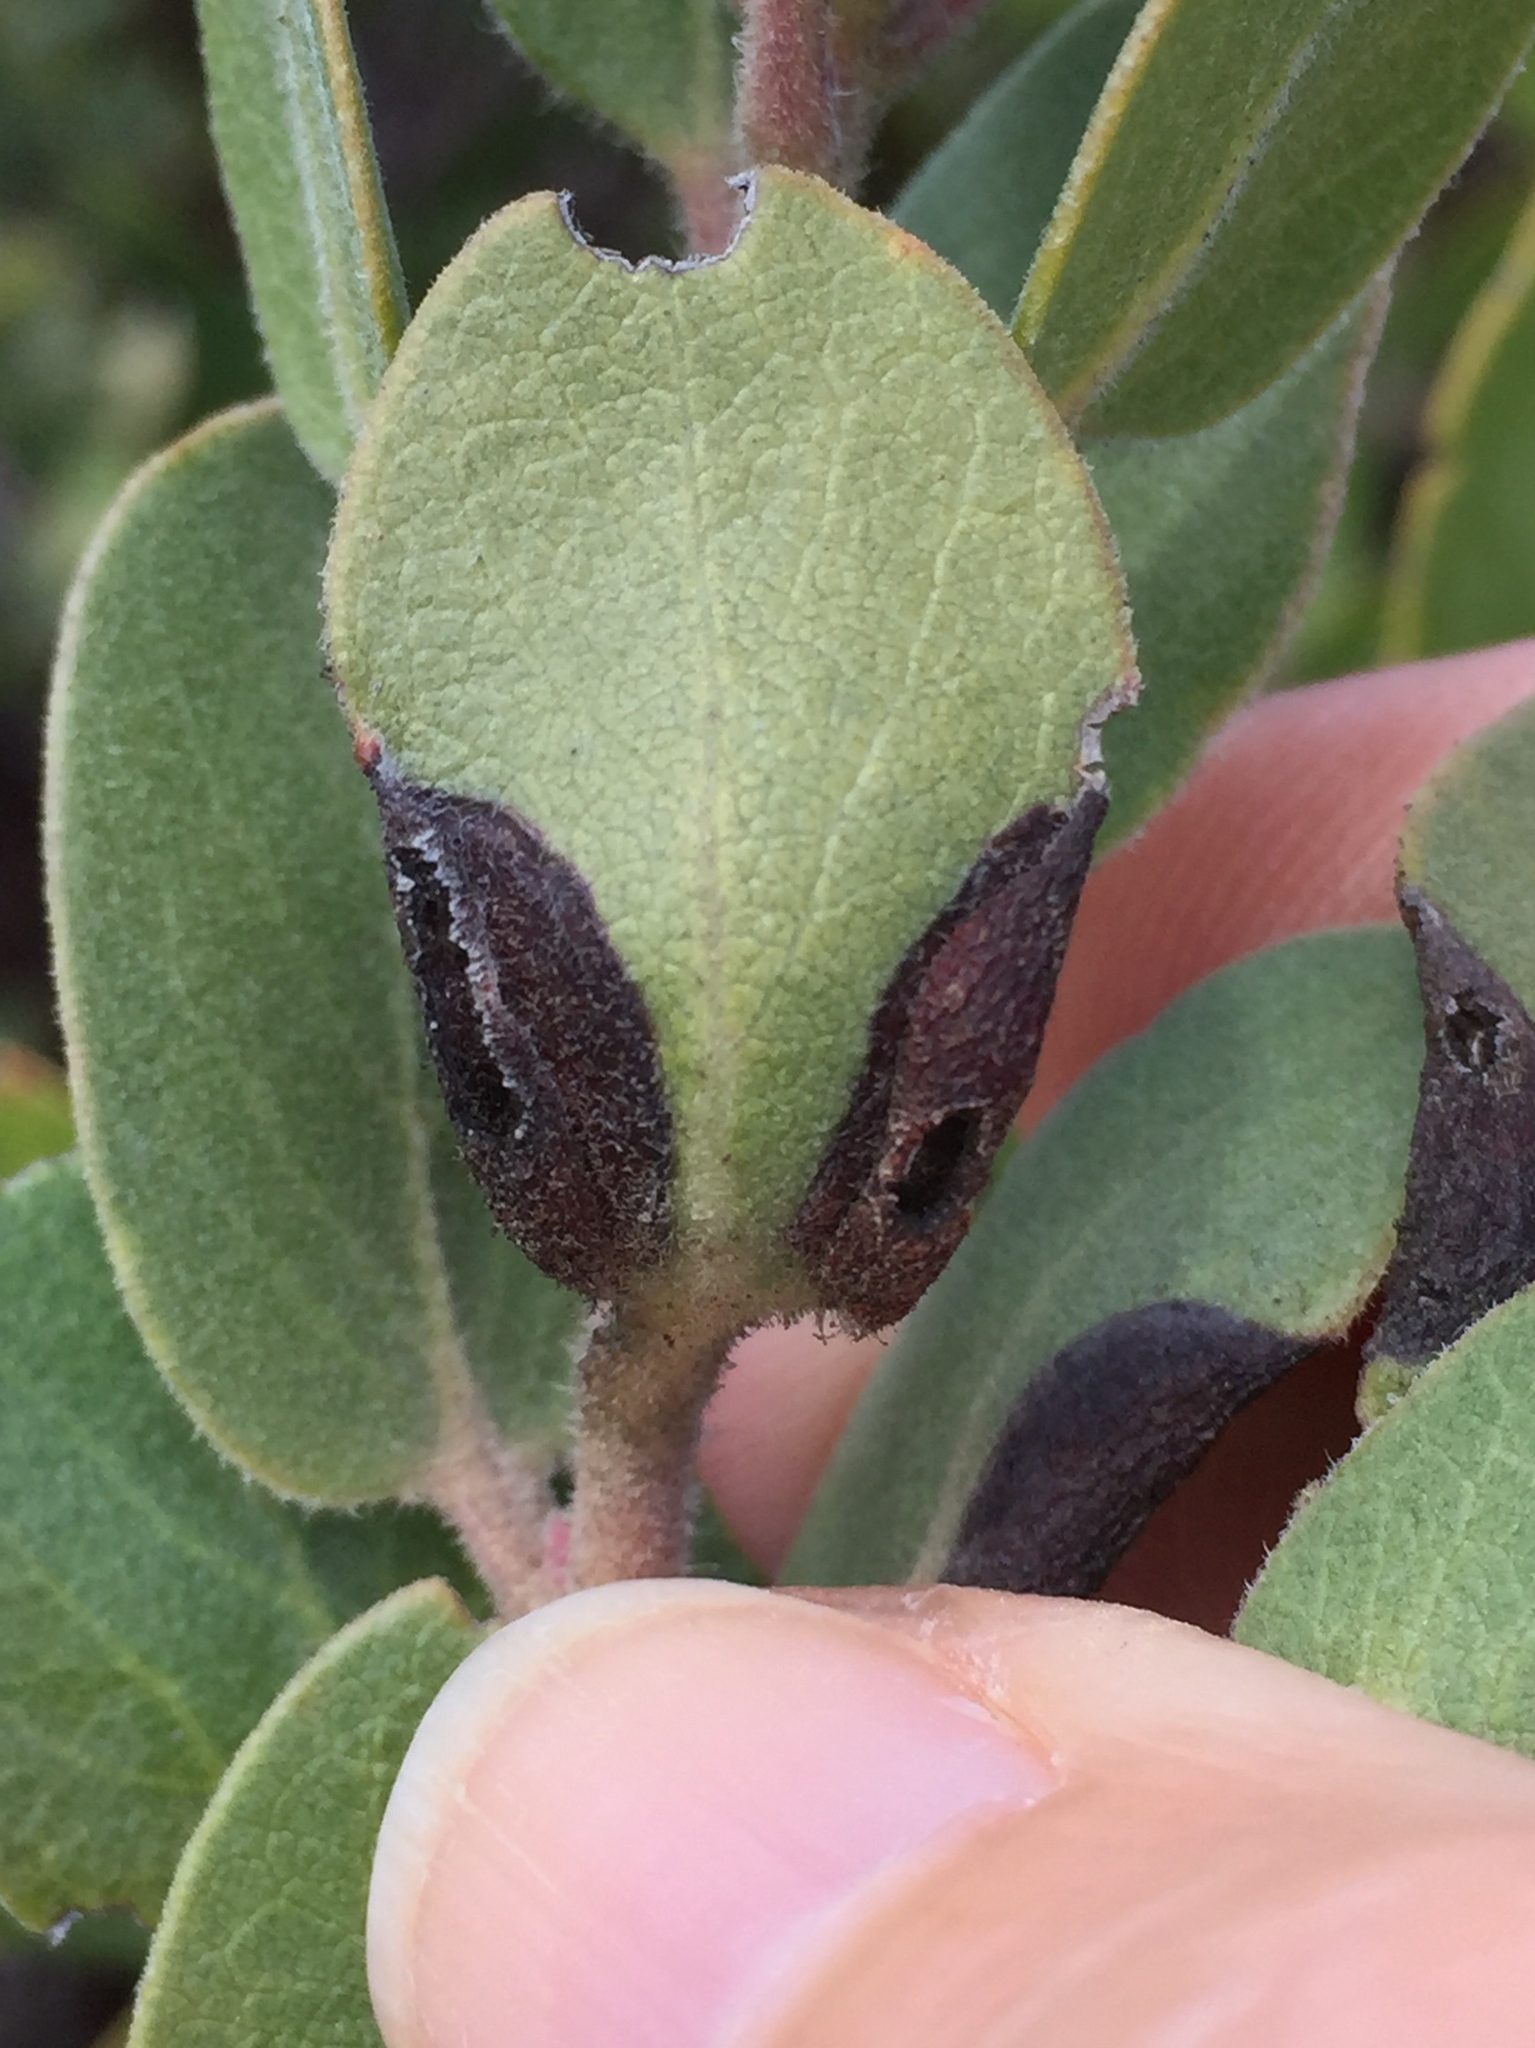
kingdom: Animalia
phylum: Arthropoda
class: Insecta
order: Hemiptera
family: Aphididae
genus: Tamalia
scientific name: Tamalia coweni
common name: Manzanita leafgall aphid
